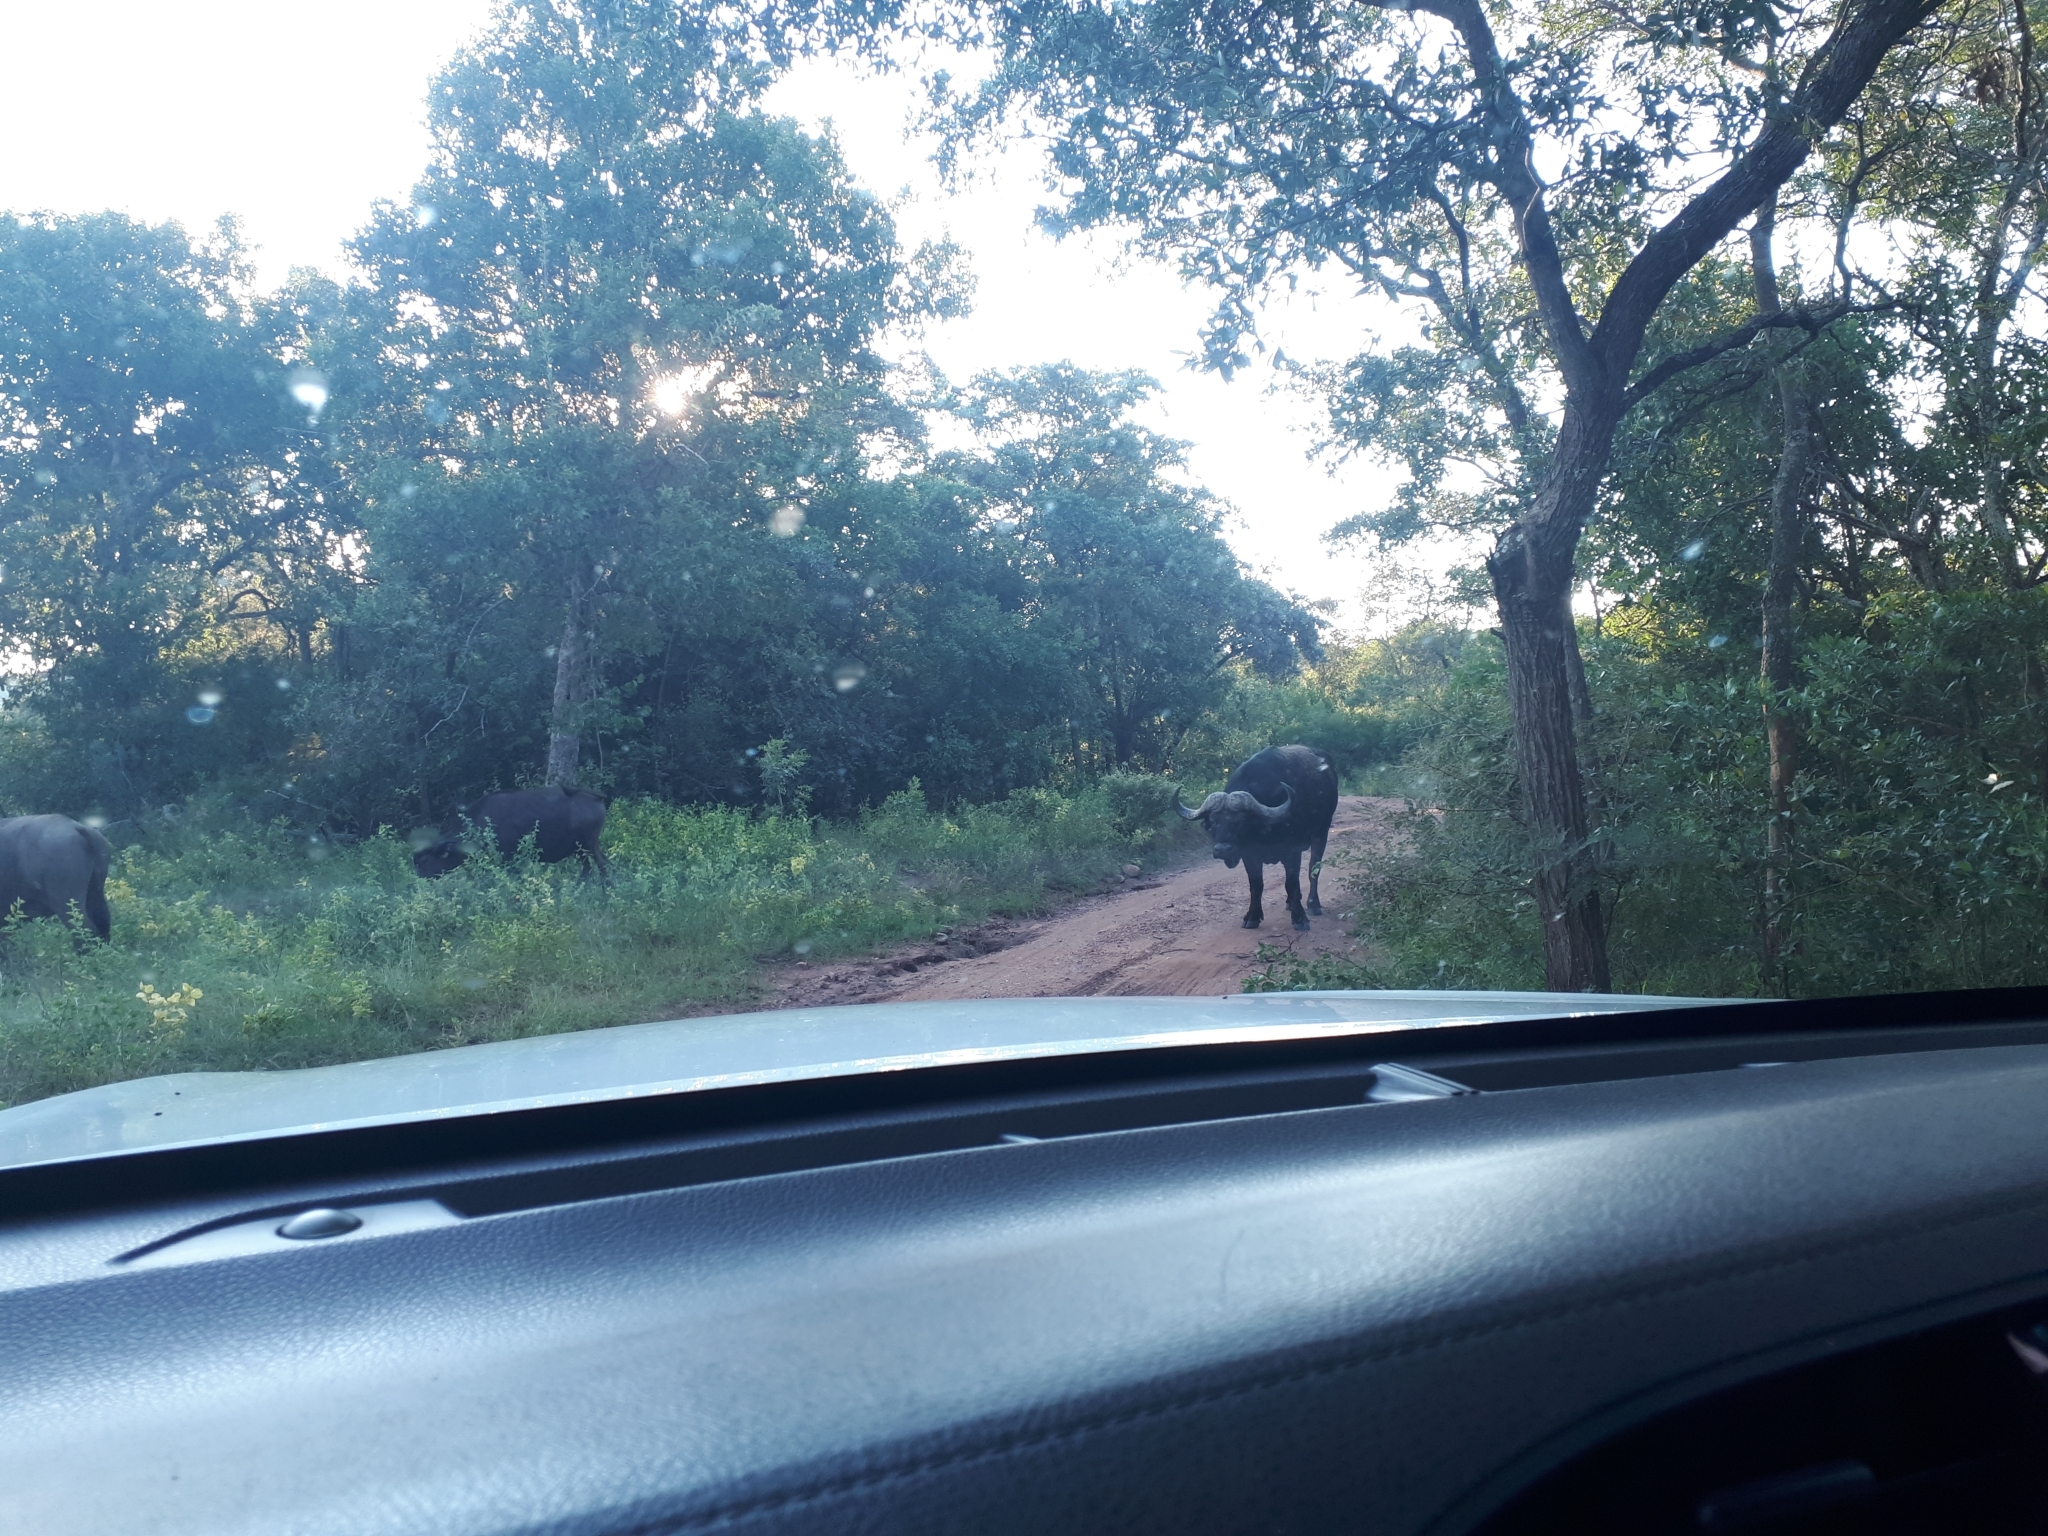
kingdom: Animalia
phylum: Chordata
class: Mammalia
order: Artiodactyla
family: Bovidae
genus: Syncerus
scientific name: Syncerus caffer
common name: African buffalo
